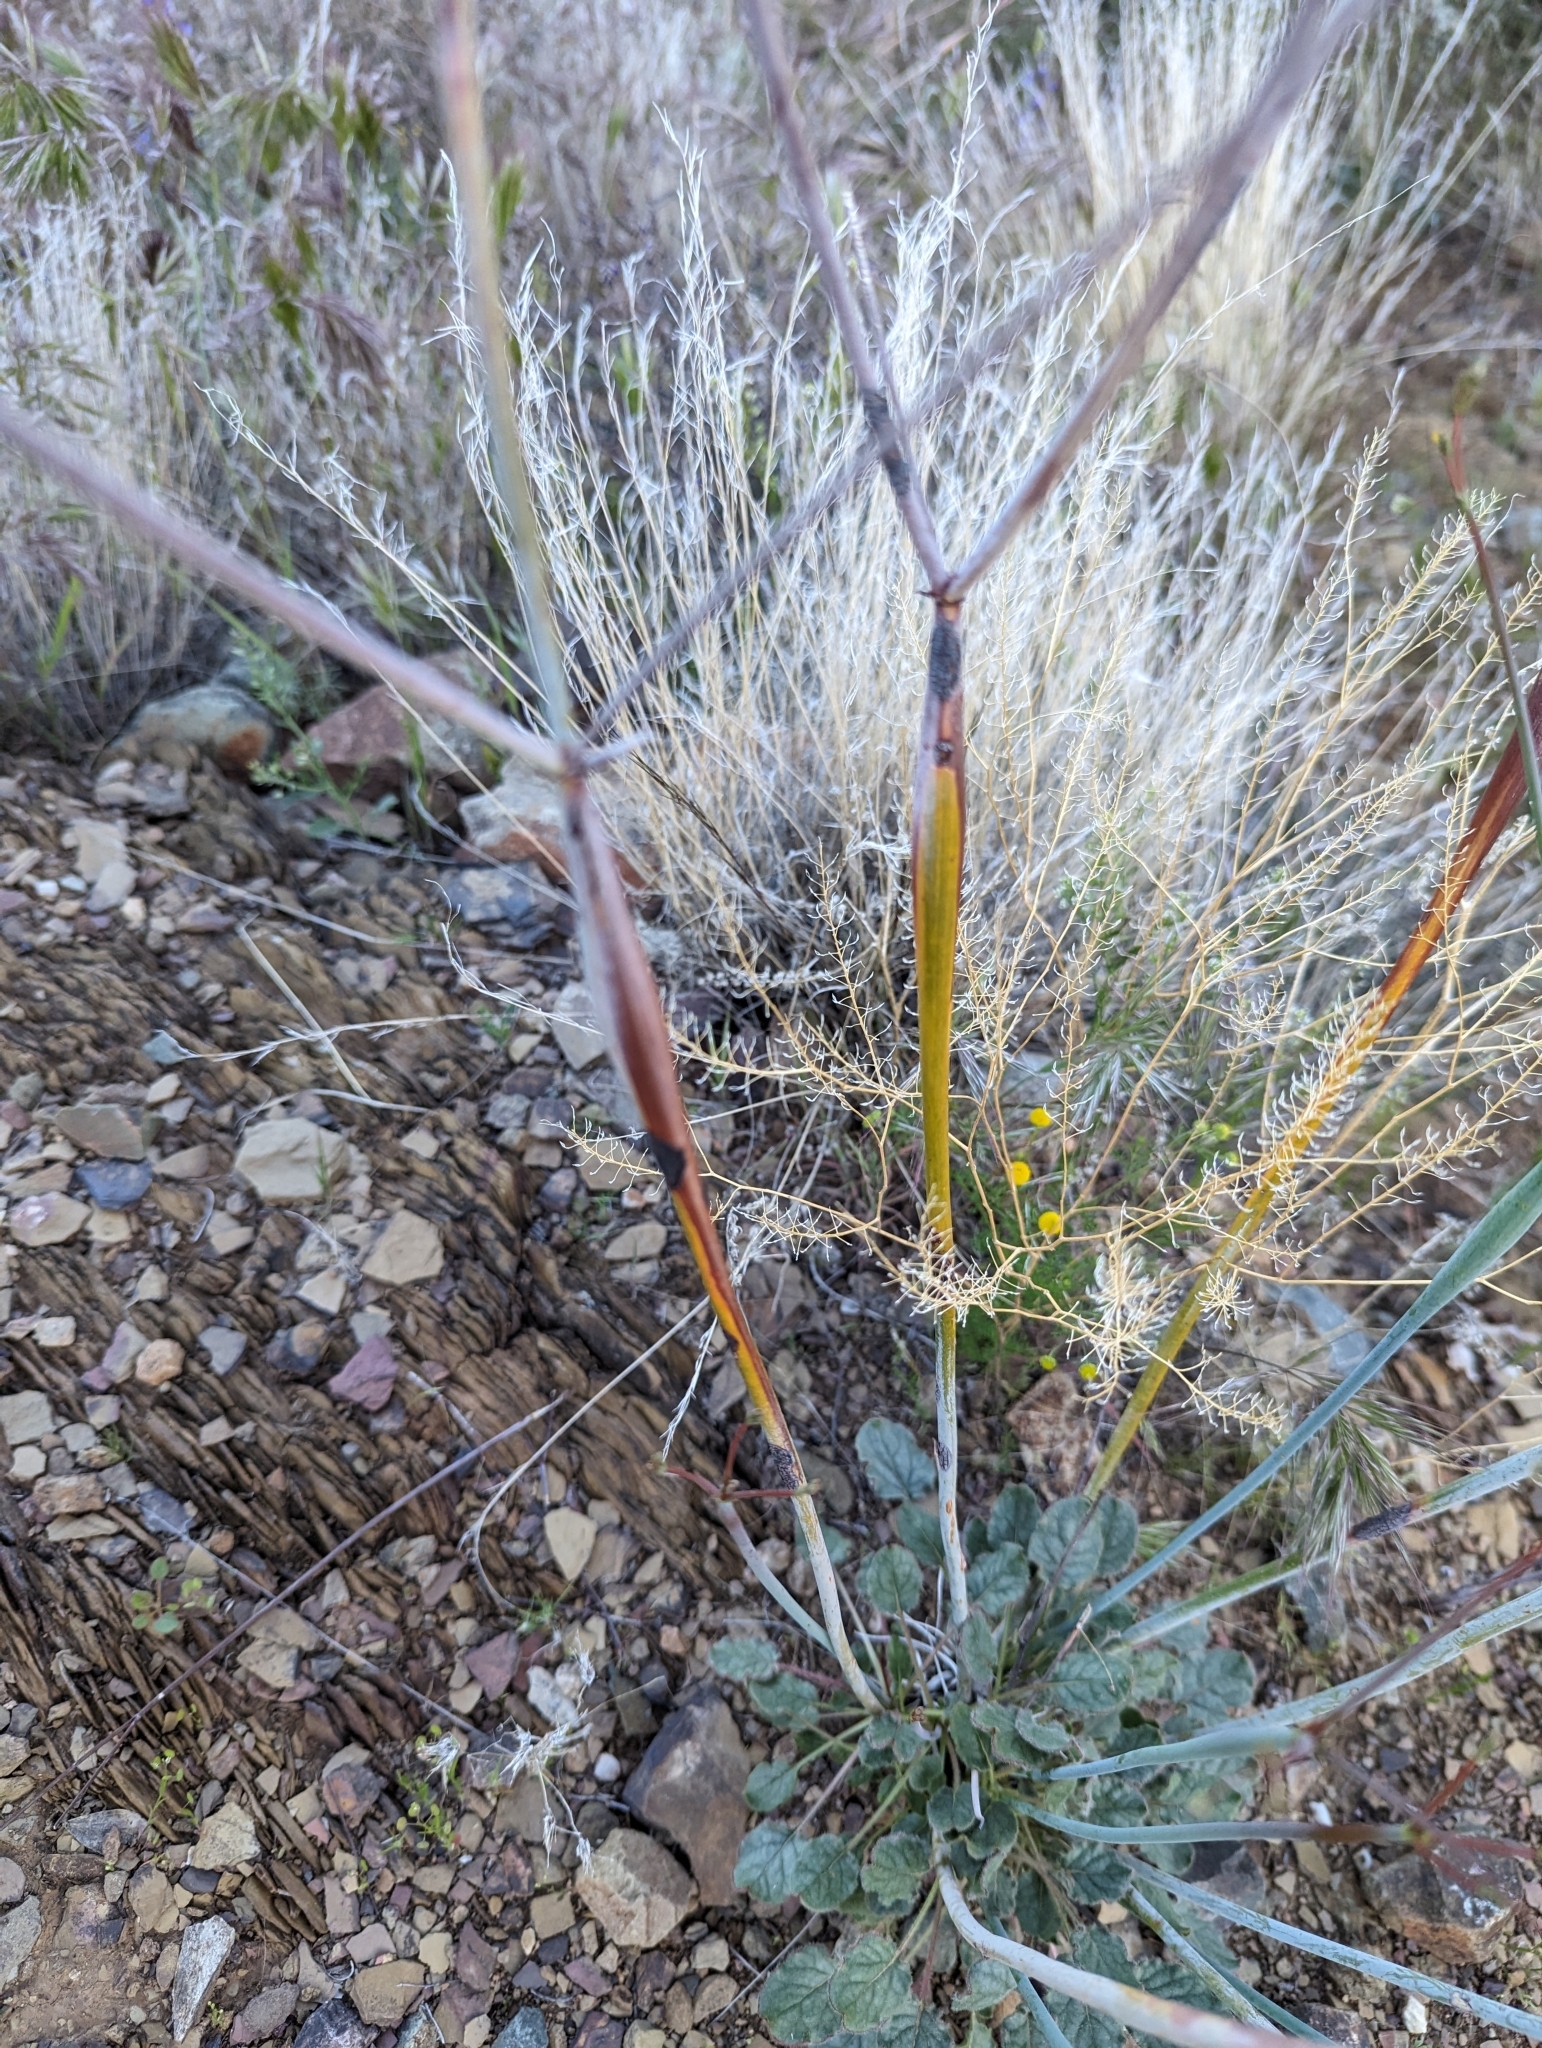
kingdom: Plantae
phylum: Tracheophyta
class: Magnoliopsida
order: Caryophyllales
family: Polygonaceae
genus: Eriogonum
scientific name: Eriogonum inflatum
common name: Desert trumpet
